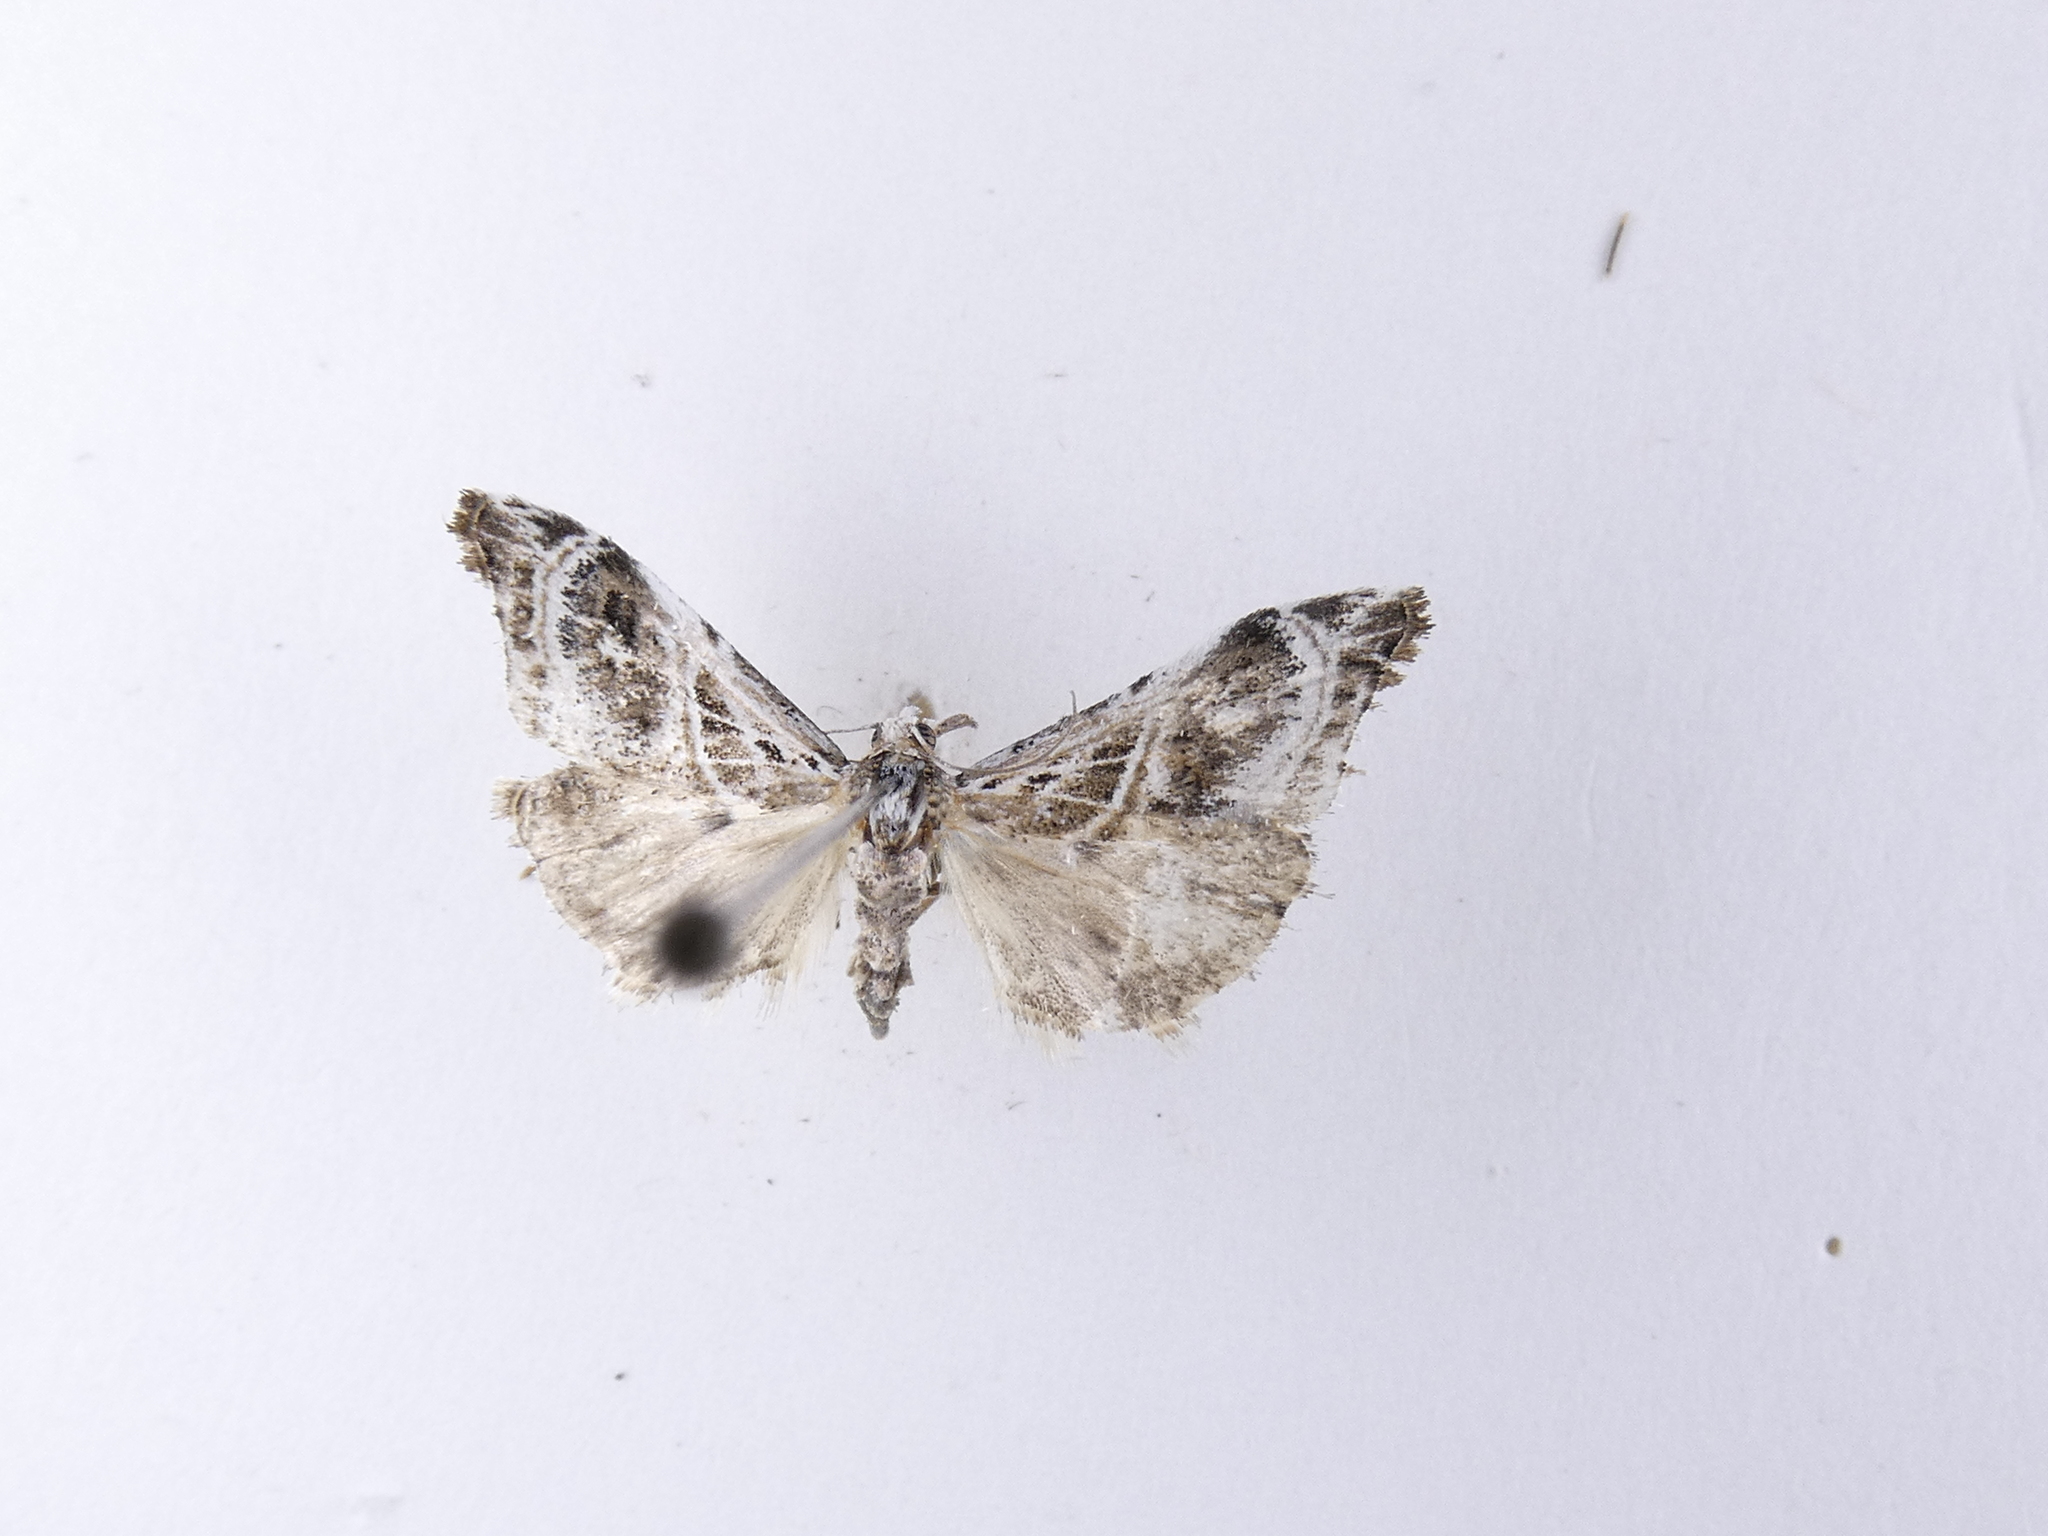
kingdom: Animalia
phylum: Arthropoda
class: Insecta
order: Lepidoptera
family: Crambidae
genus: Gadira
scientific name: Gadira acerella
